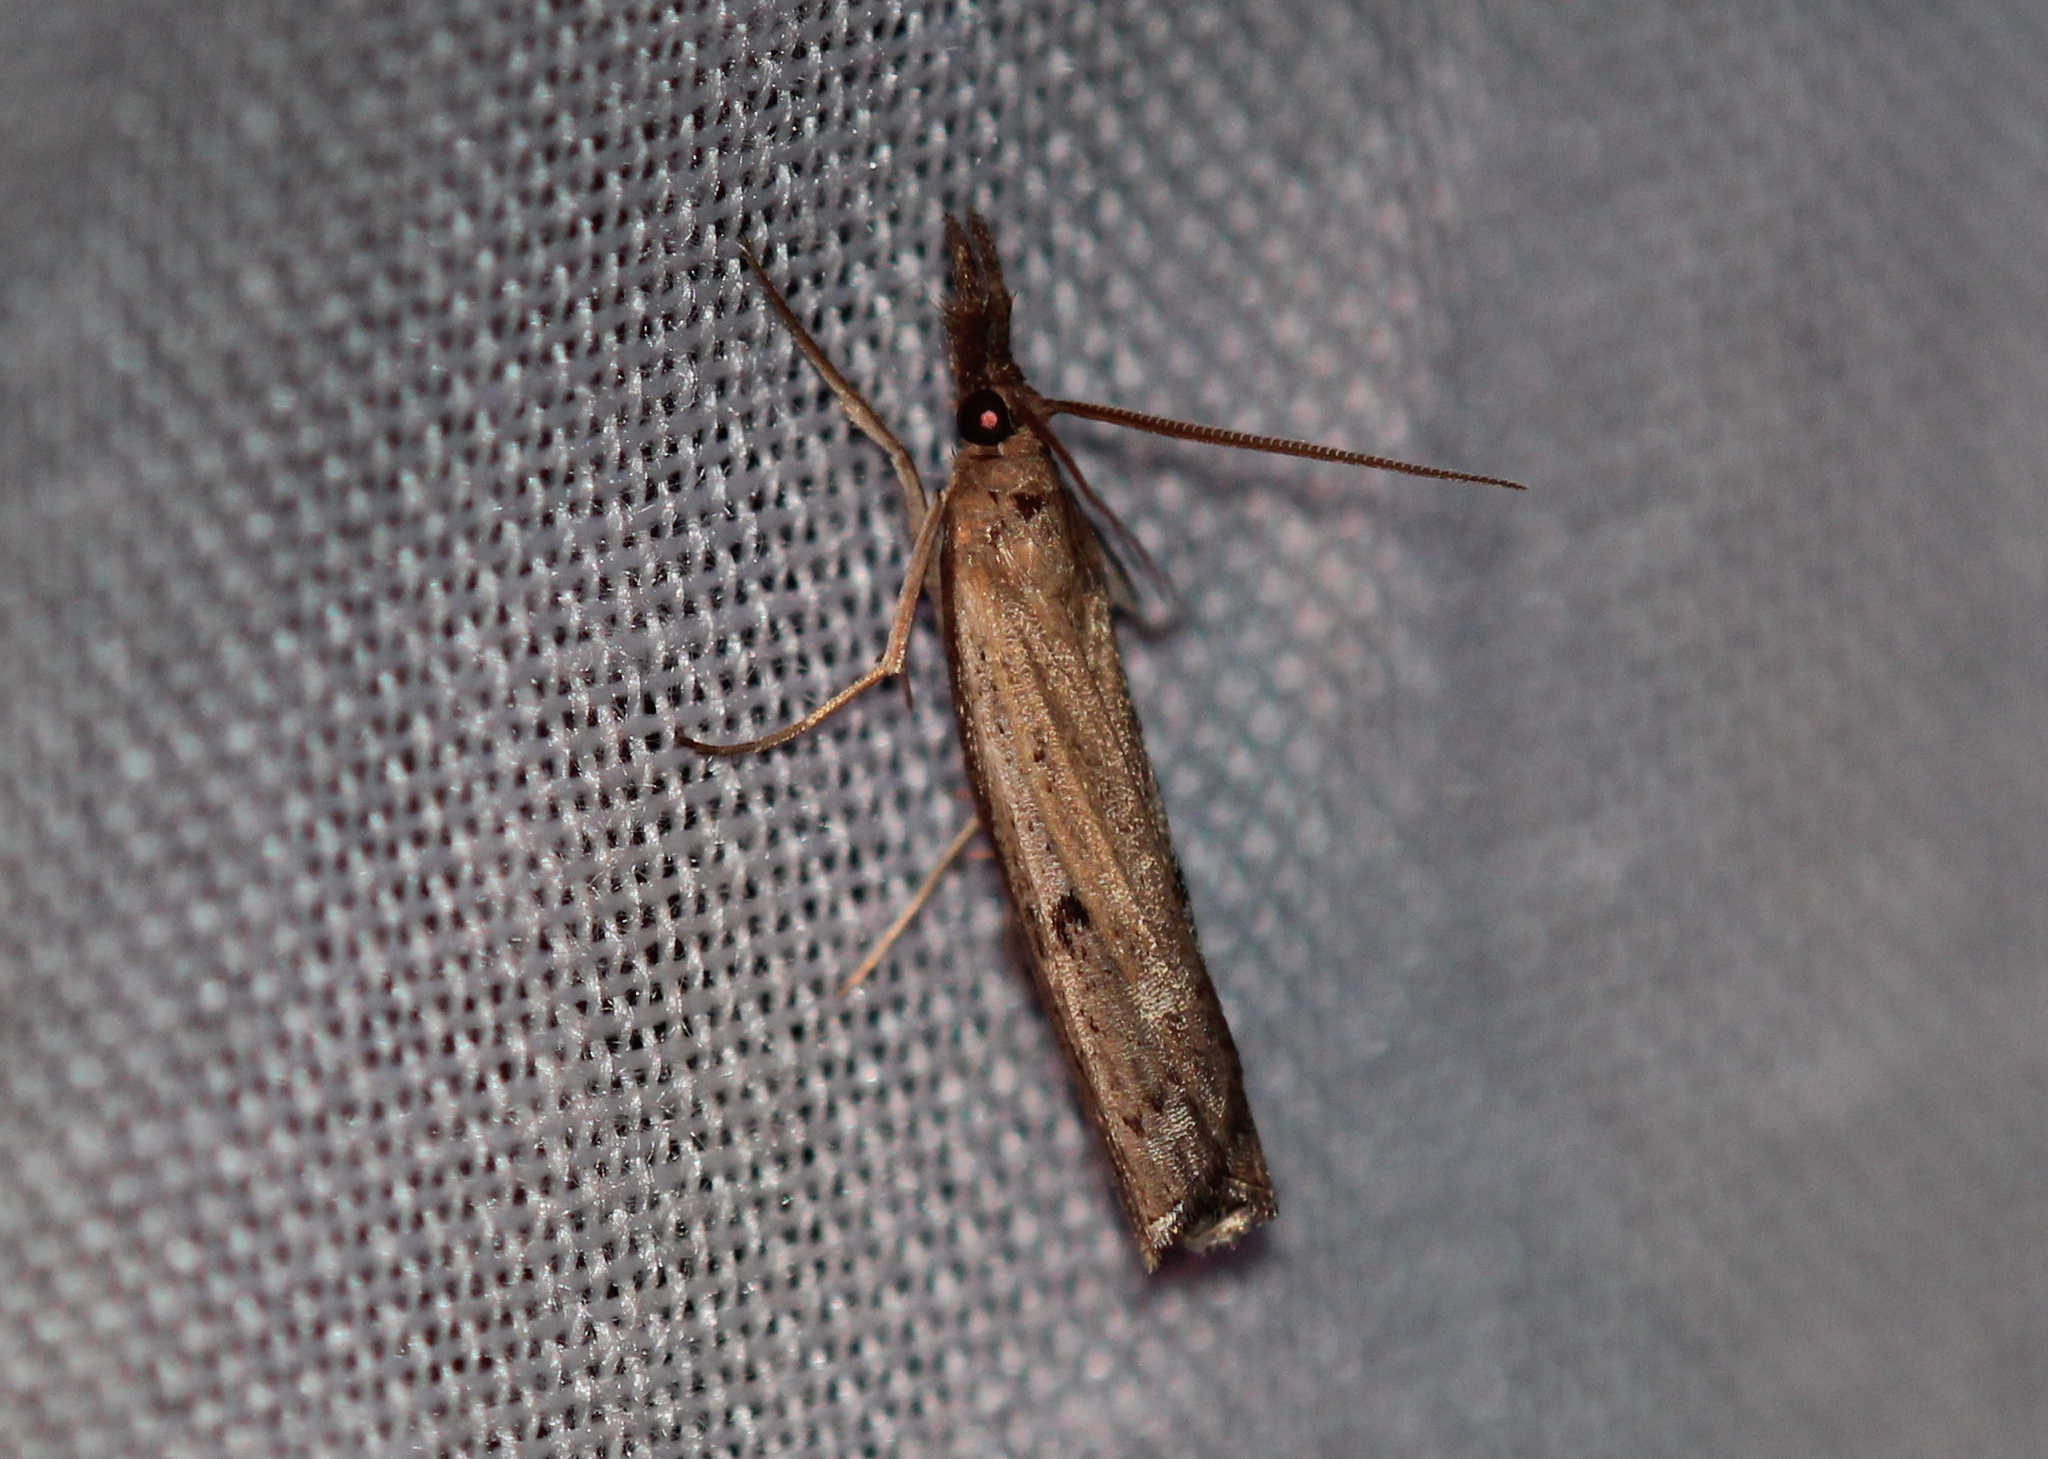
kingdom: Animalia
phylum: Arthropoda
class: Insecta
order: Lepidoptera
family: Crambidae
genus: Fissicrambus
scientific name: Fissicrambus mutabilis
